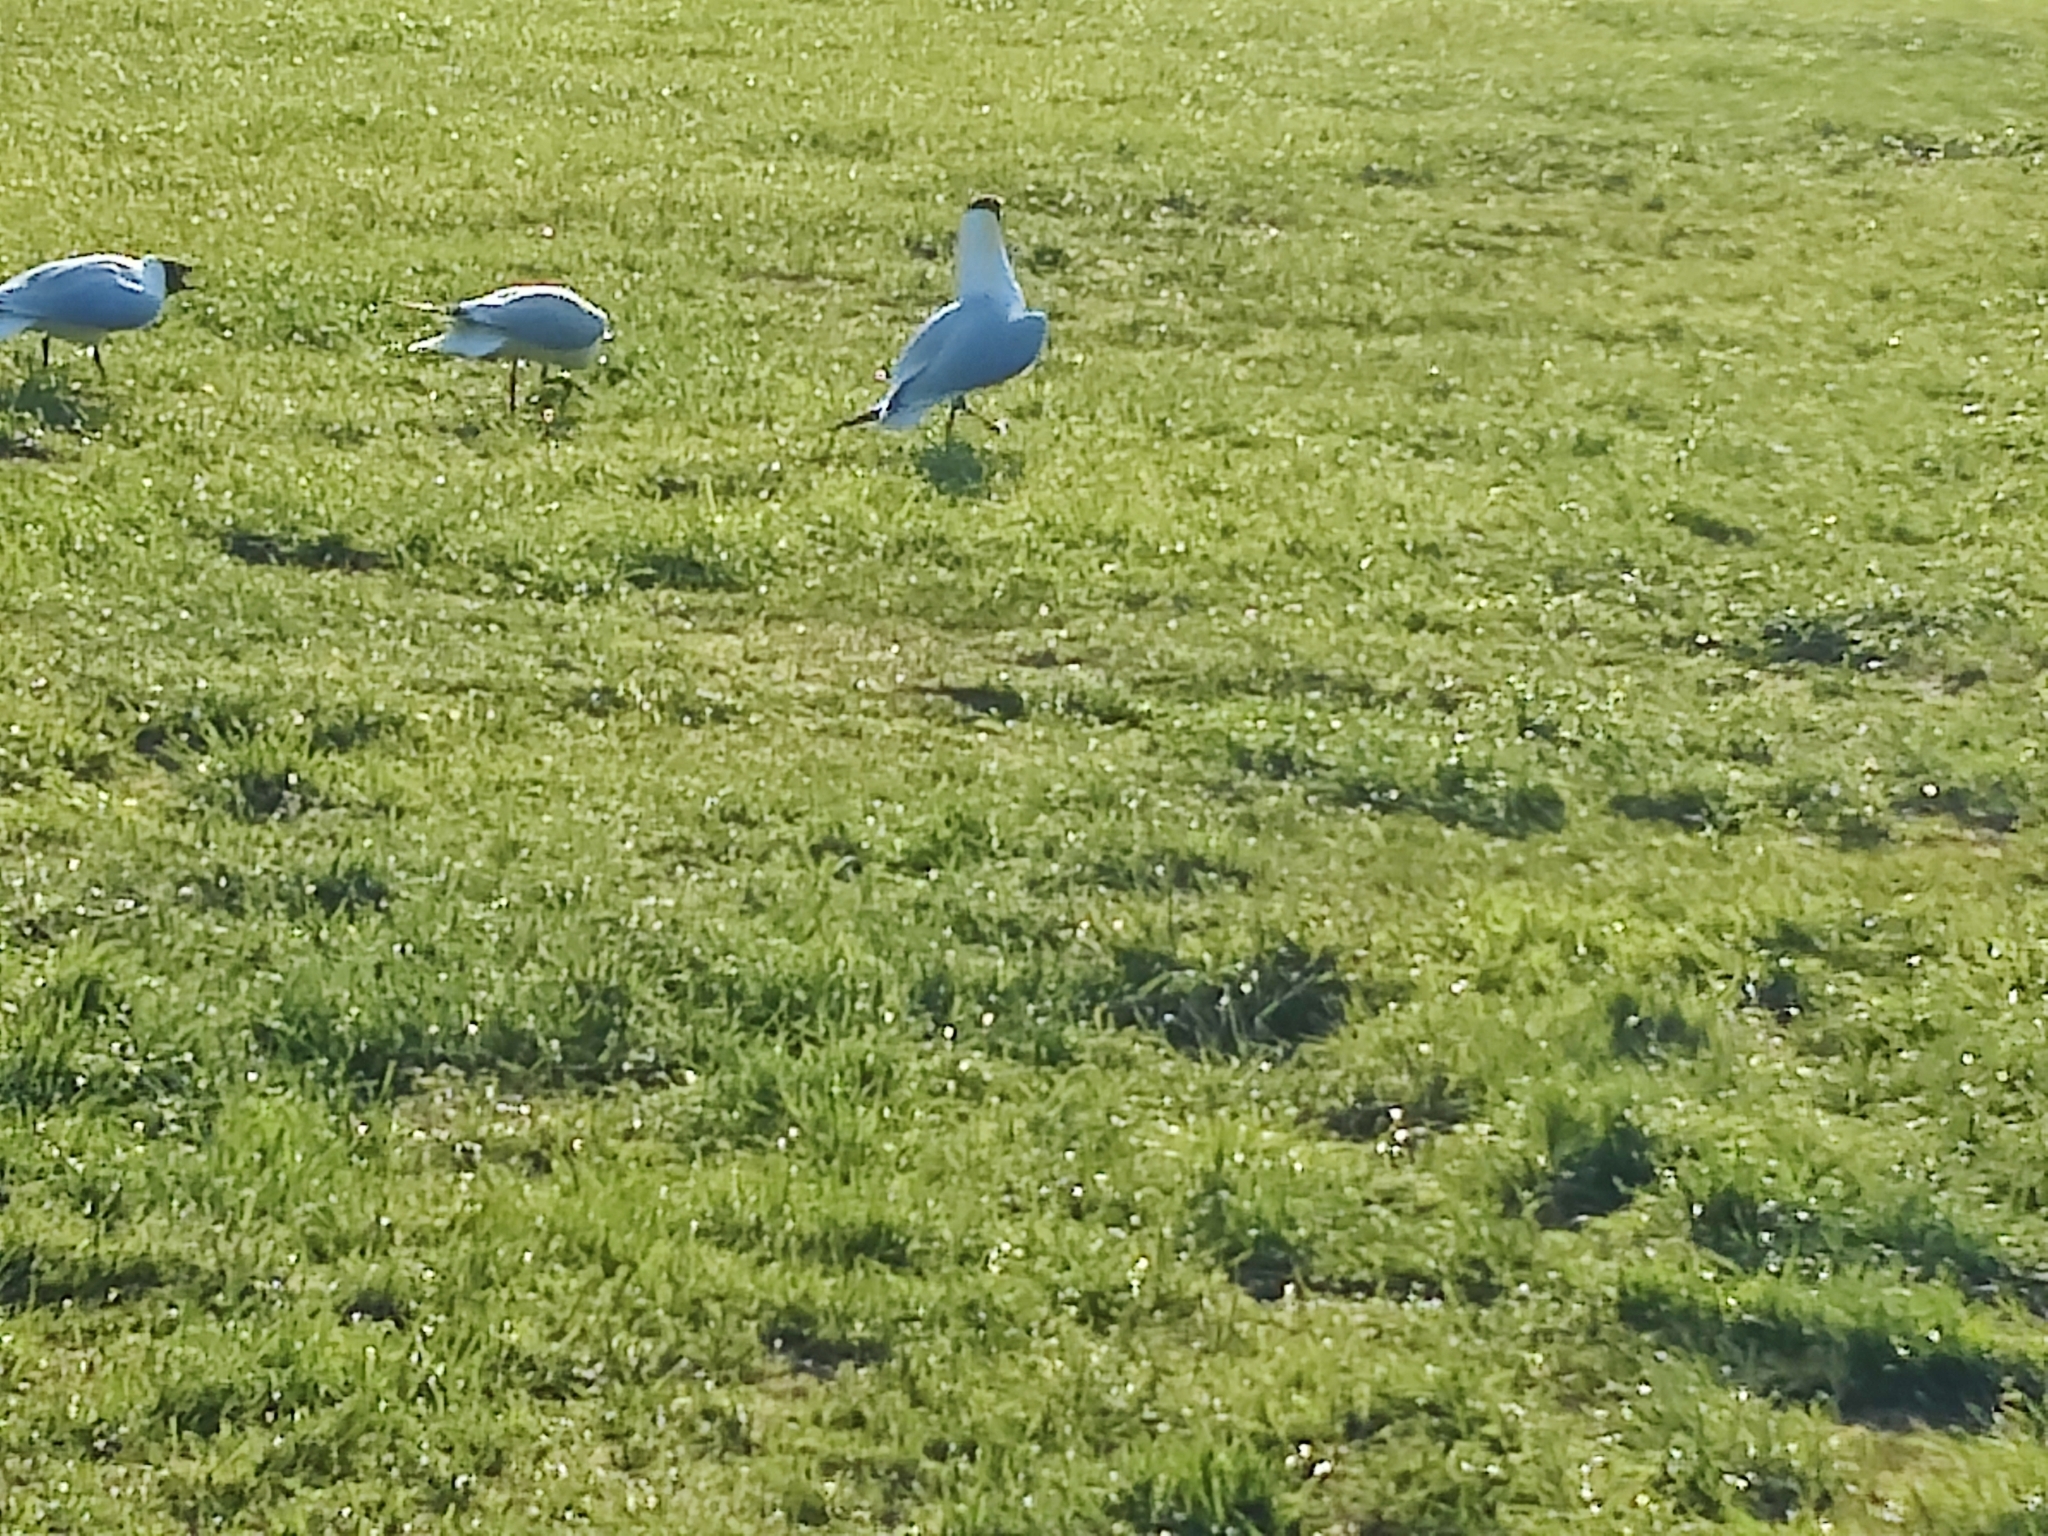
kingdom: Animalia
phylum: Chordata
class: Aves
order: Charadriiformes
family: Laridae
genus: Chroicocephalus
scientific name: Chroicocephalus ridibundus
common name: Black-headed gull
